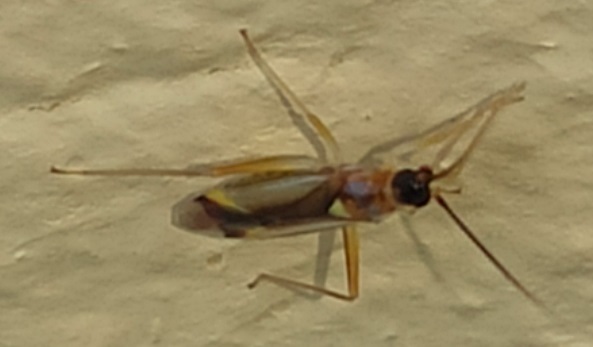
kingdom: Animalia
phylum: Arthropoda
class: Insecta
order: Hemiptera
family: Miridae
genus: Campyloneura
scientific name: Campyloneura virgula
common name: Predatory bug
